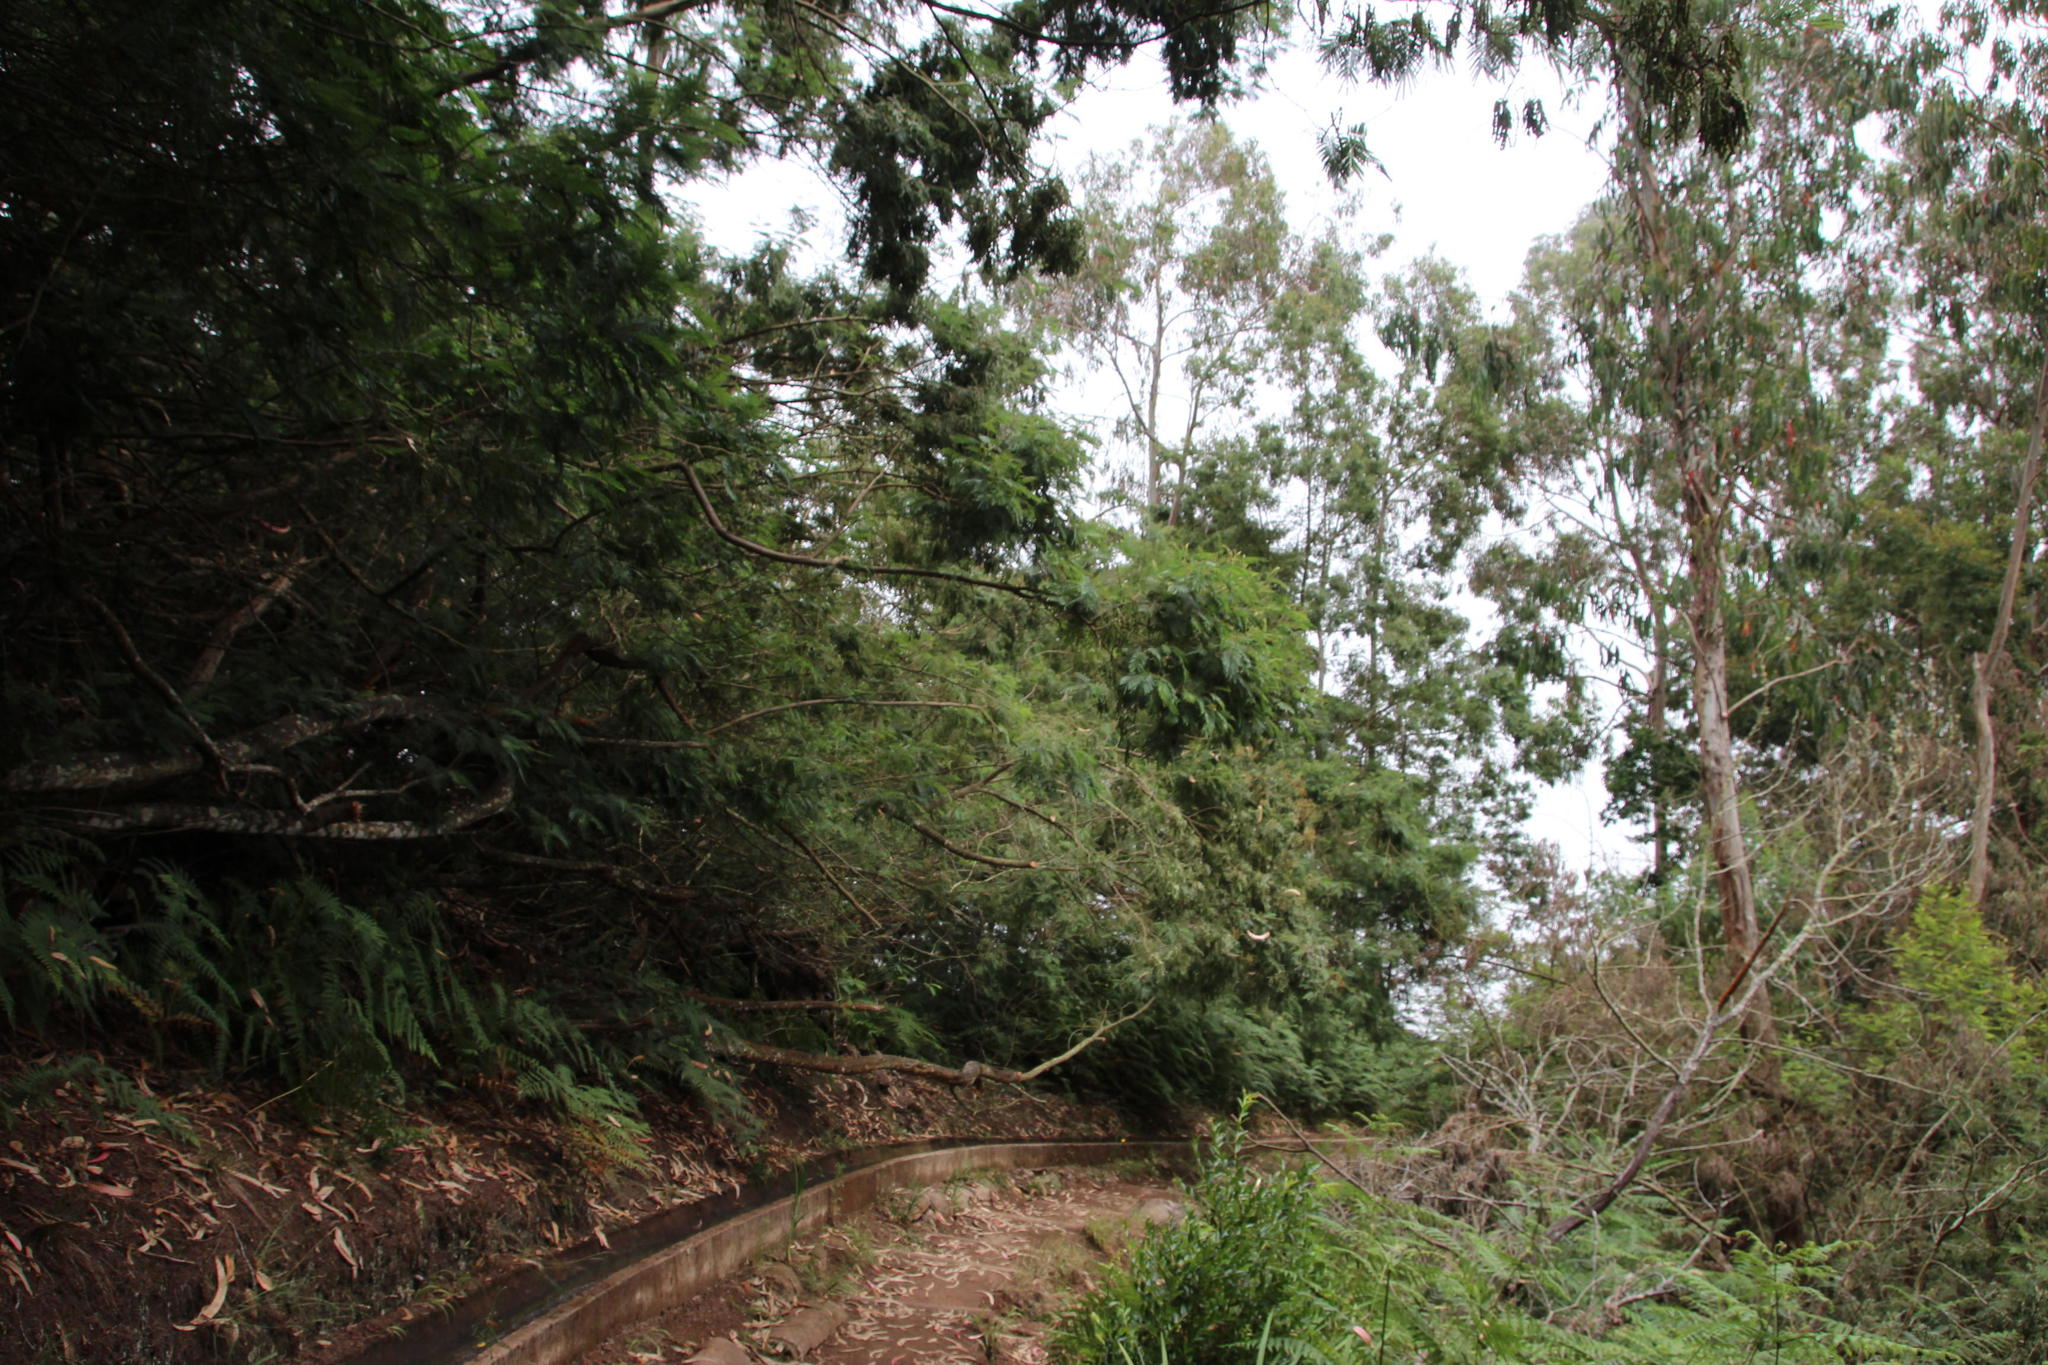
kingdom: Plantae
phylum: Tracheophyta
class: Magnoliopsida
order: Fabales
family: Fabaceae
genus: Acacia
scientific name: Acacia mearnsii
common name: Black wattle
